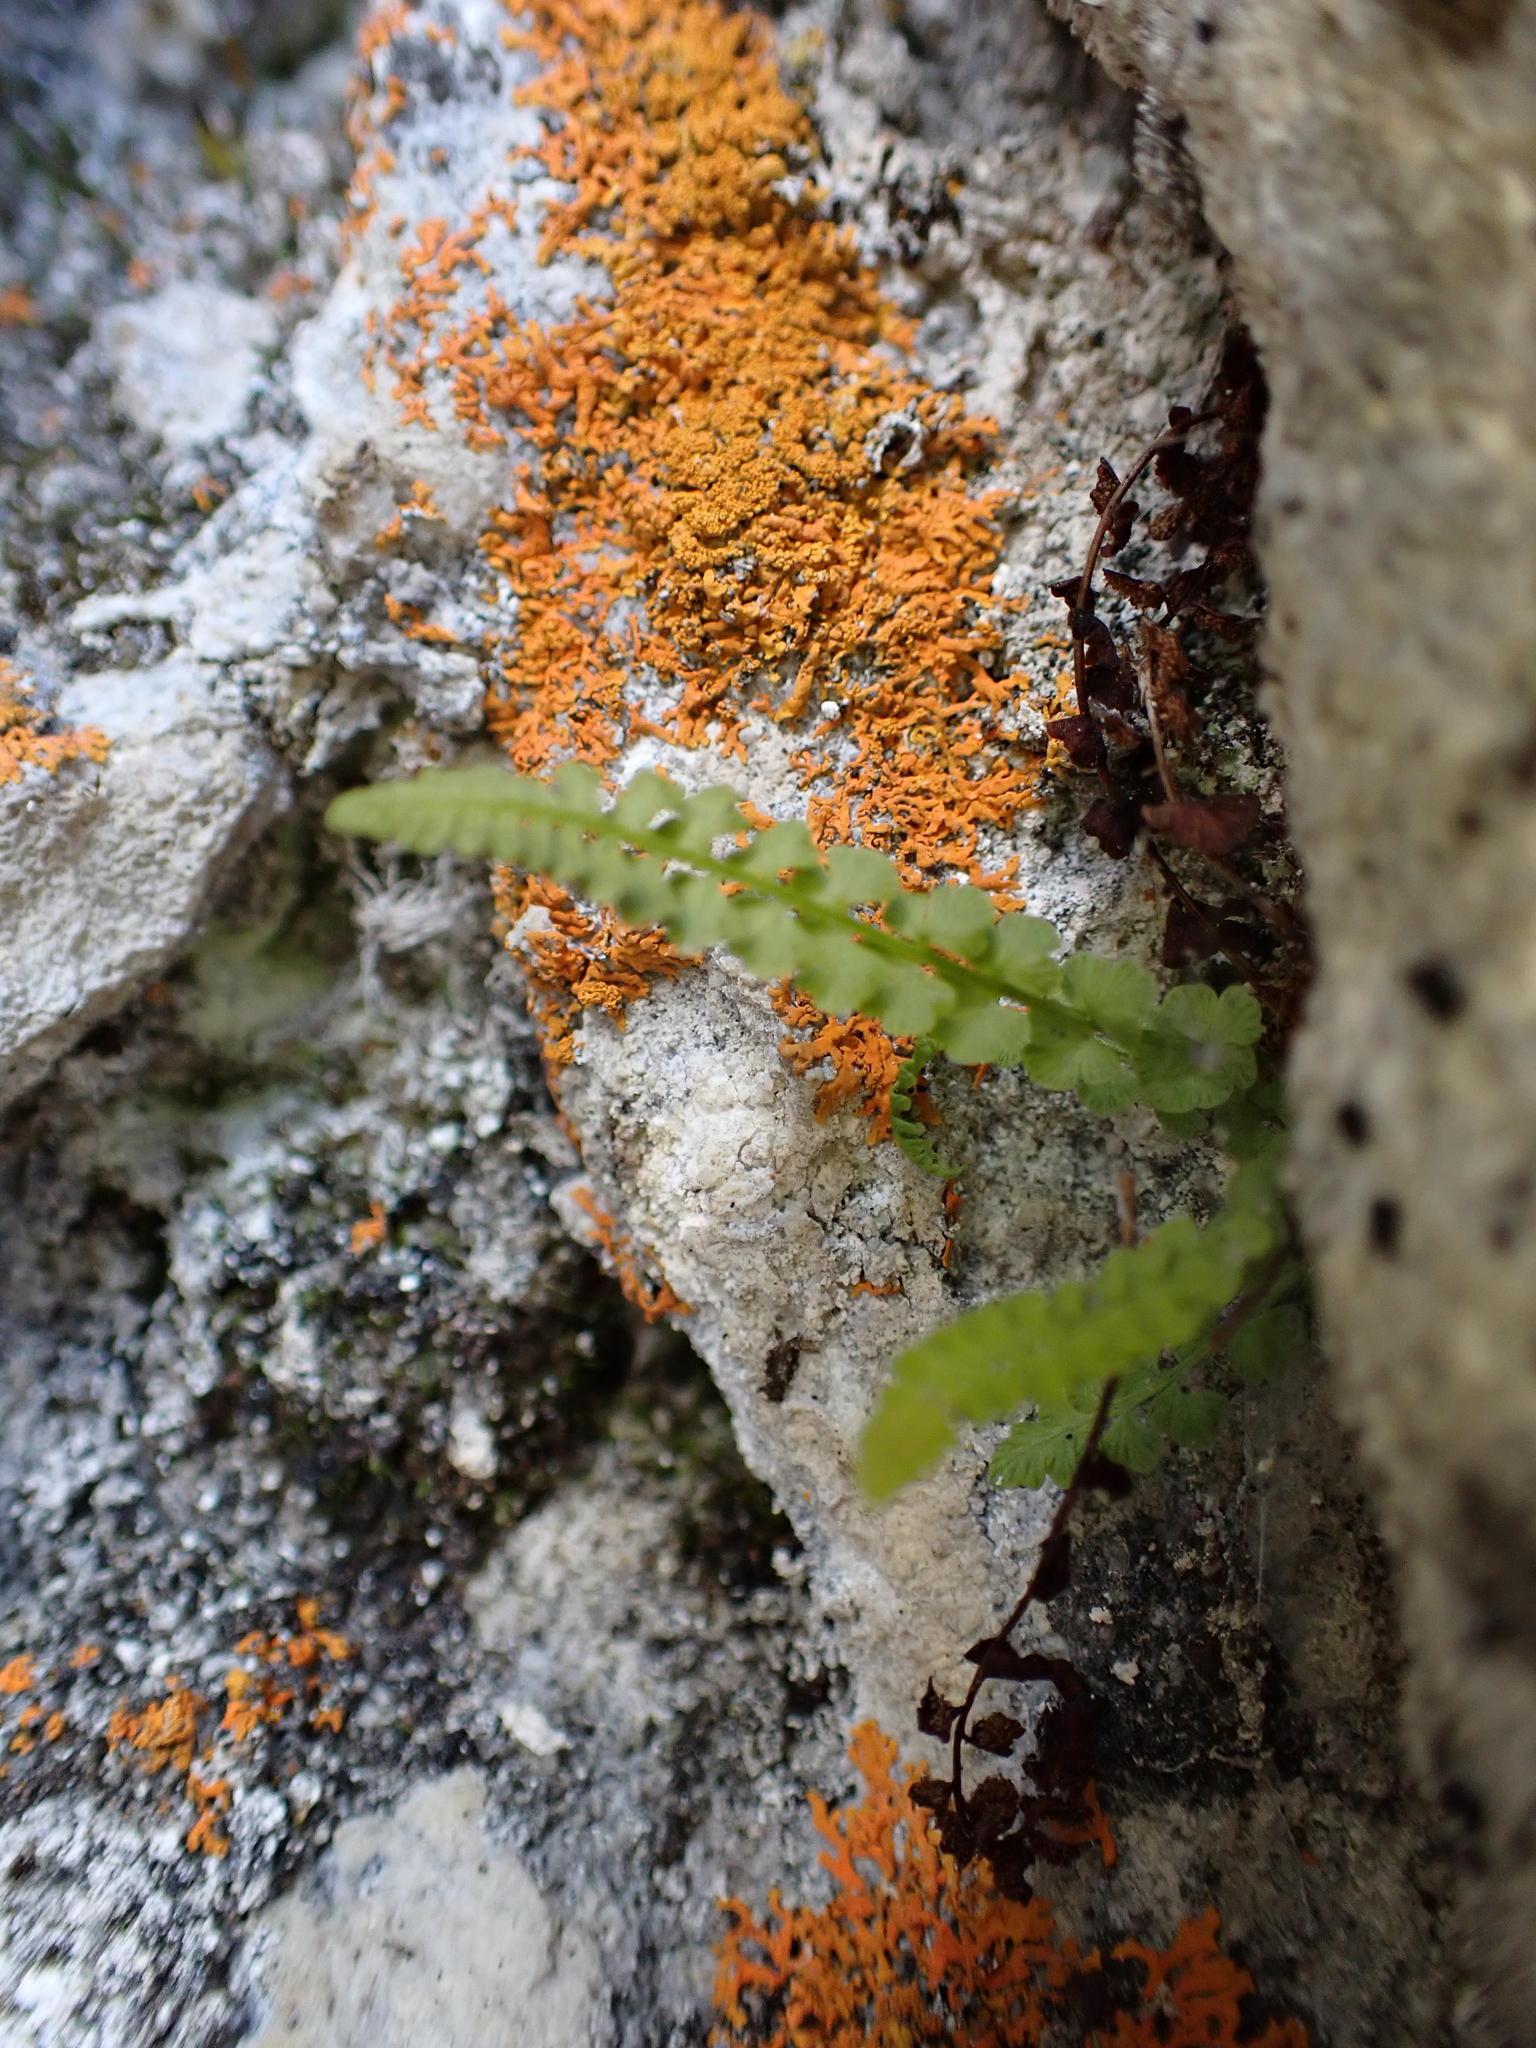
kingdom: Plantae
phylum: Tracheophyta
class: Polypodiopsida
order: Polypodiales
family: Woodsiaceae
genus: Woodsia
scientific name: Woodsia glabella
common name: Smooth woodsia
